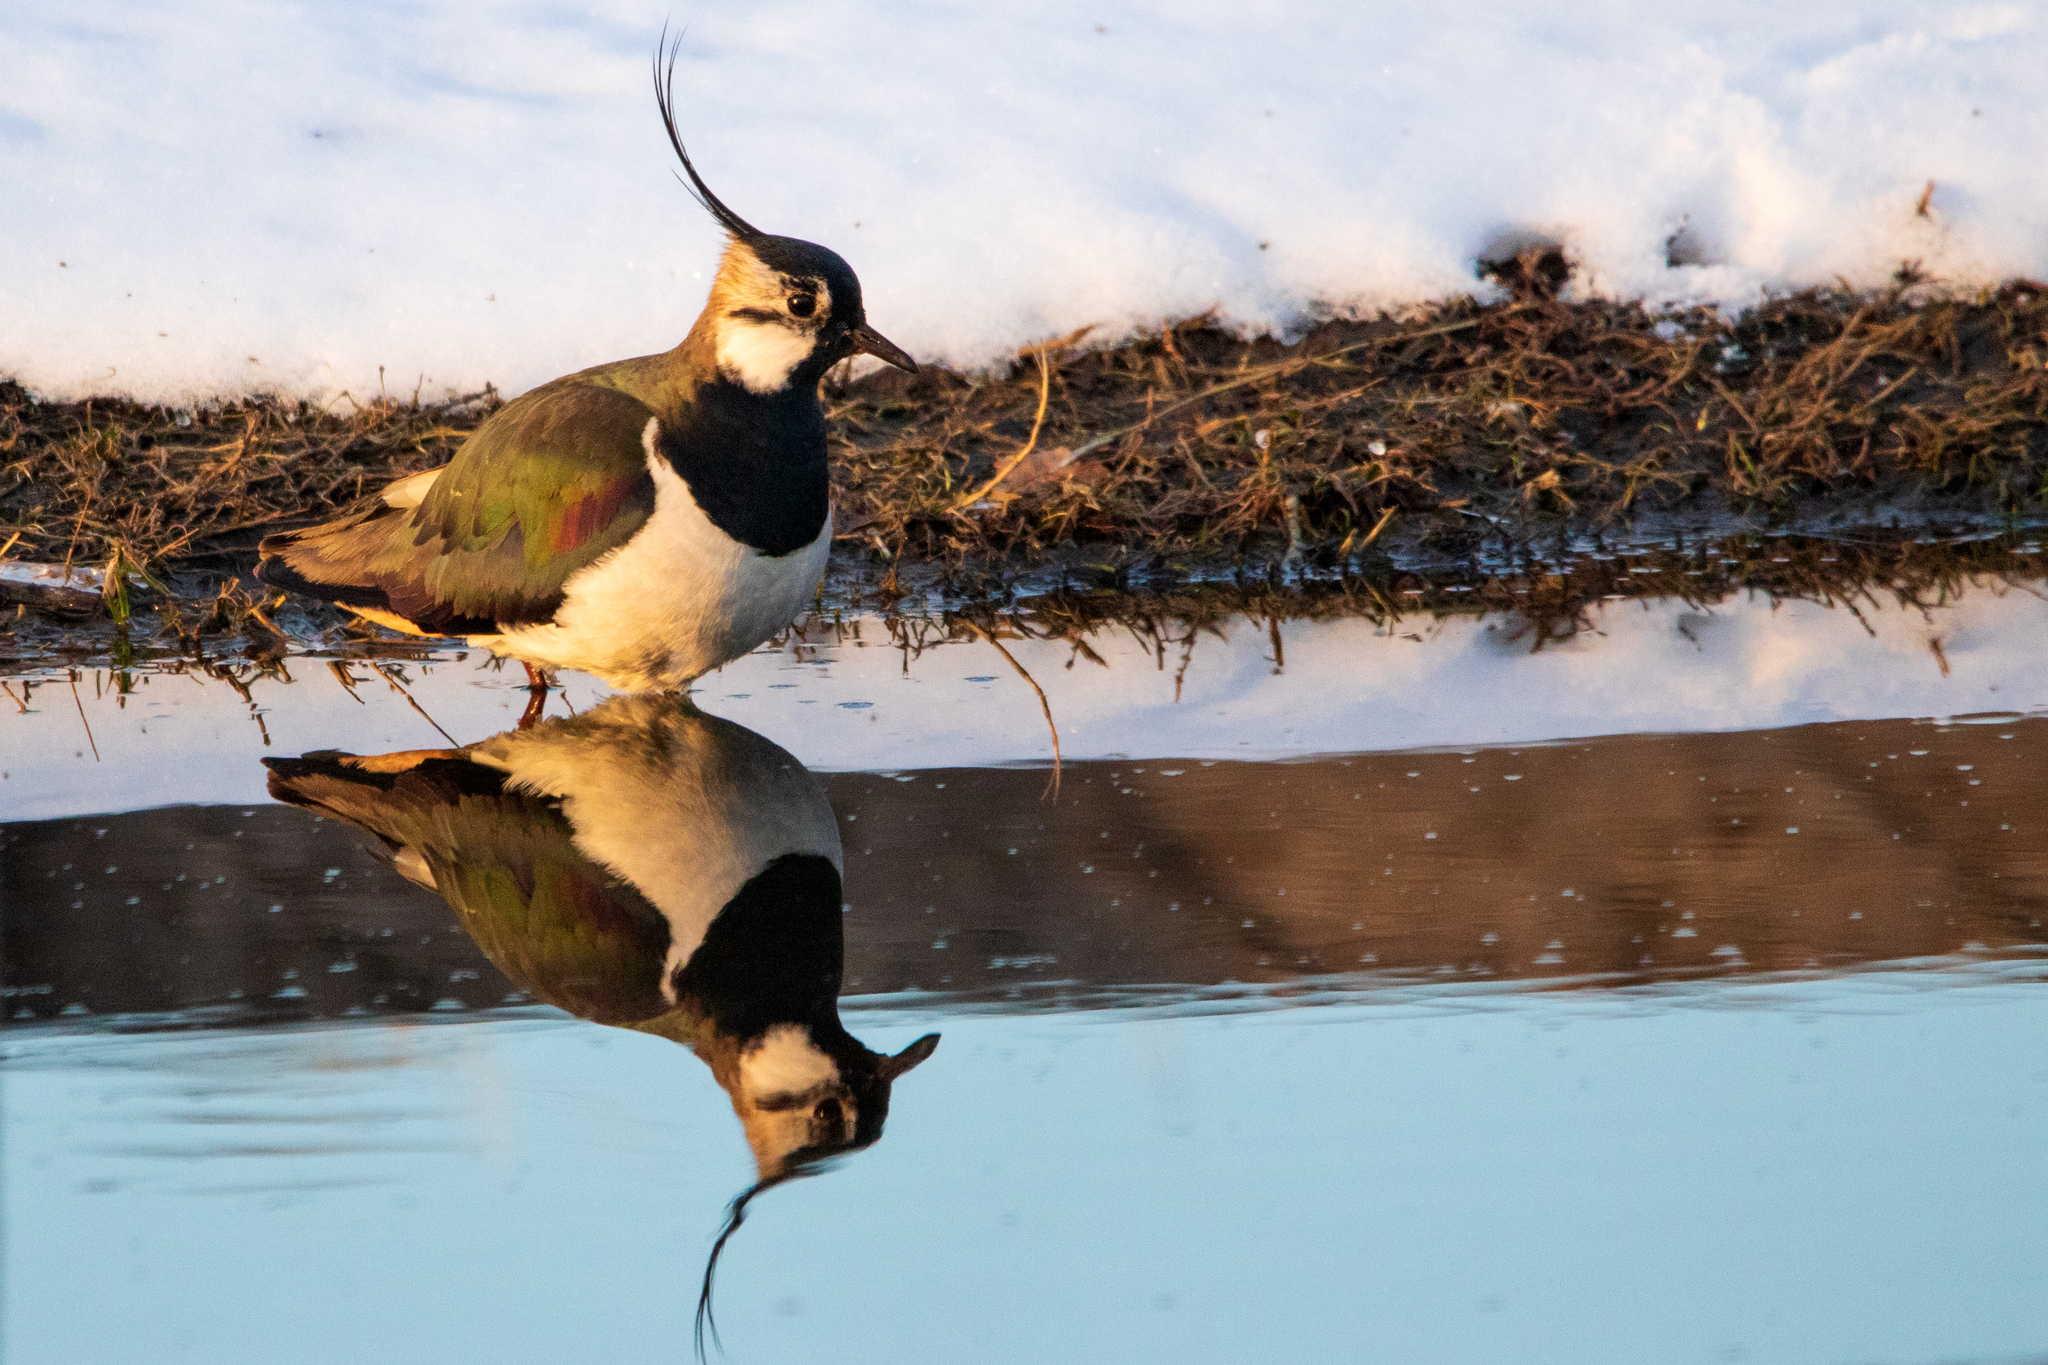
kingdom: Animalia
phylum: Chordata
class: Aves
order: Charadriiformes
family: Charadriidae
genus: Vanellus
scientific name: Vanellus vanellus
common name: Northern lapwing
